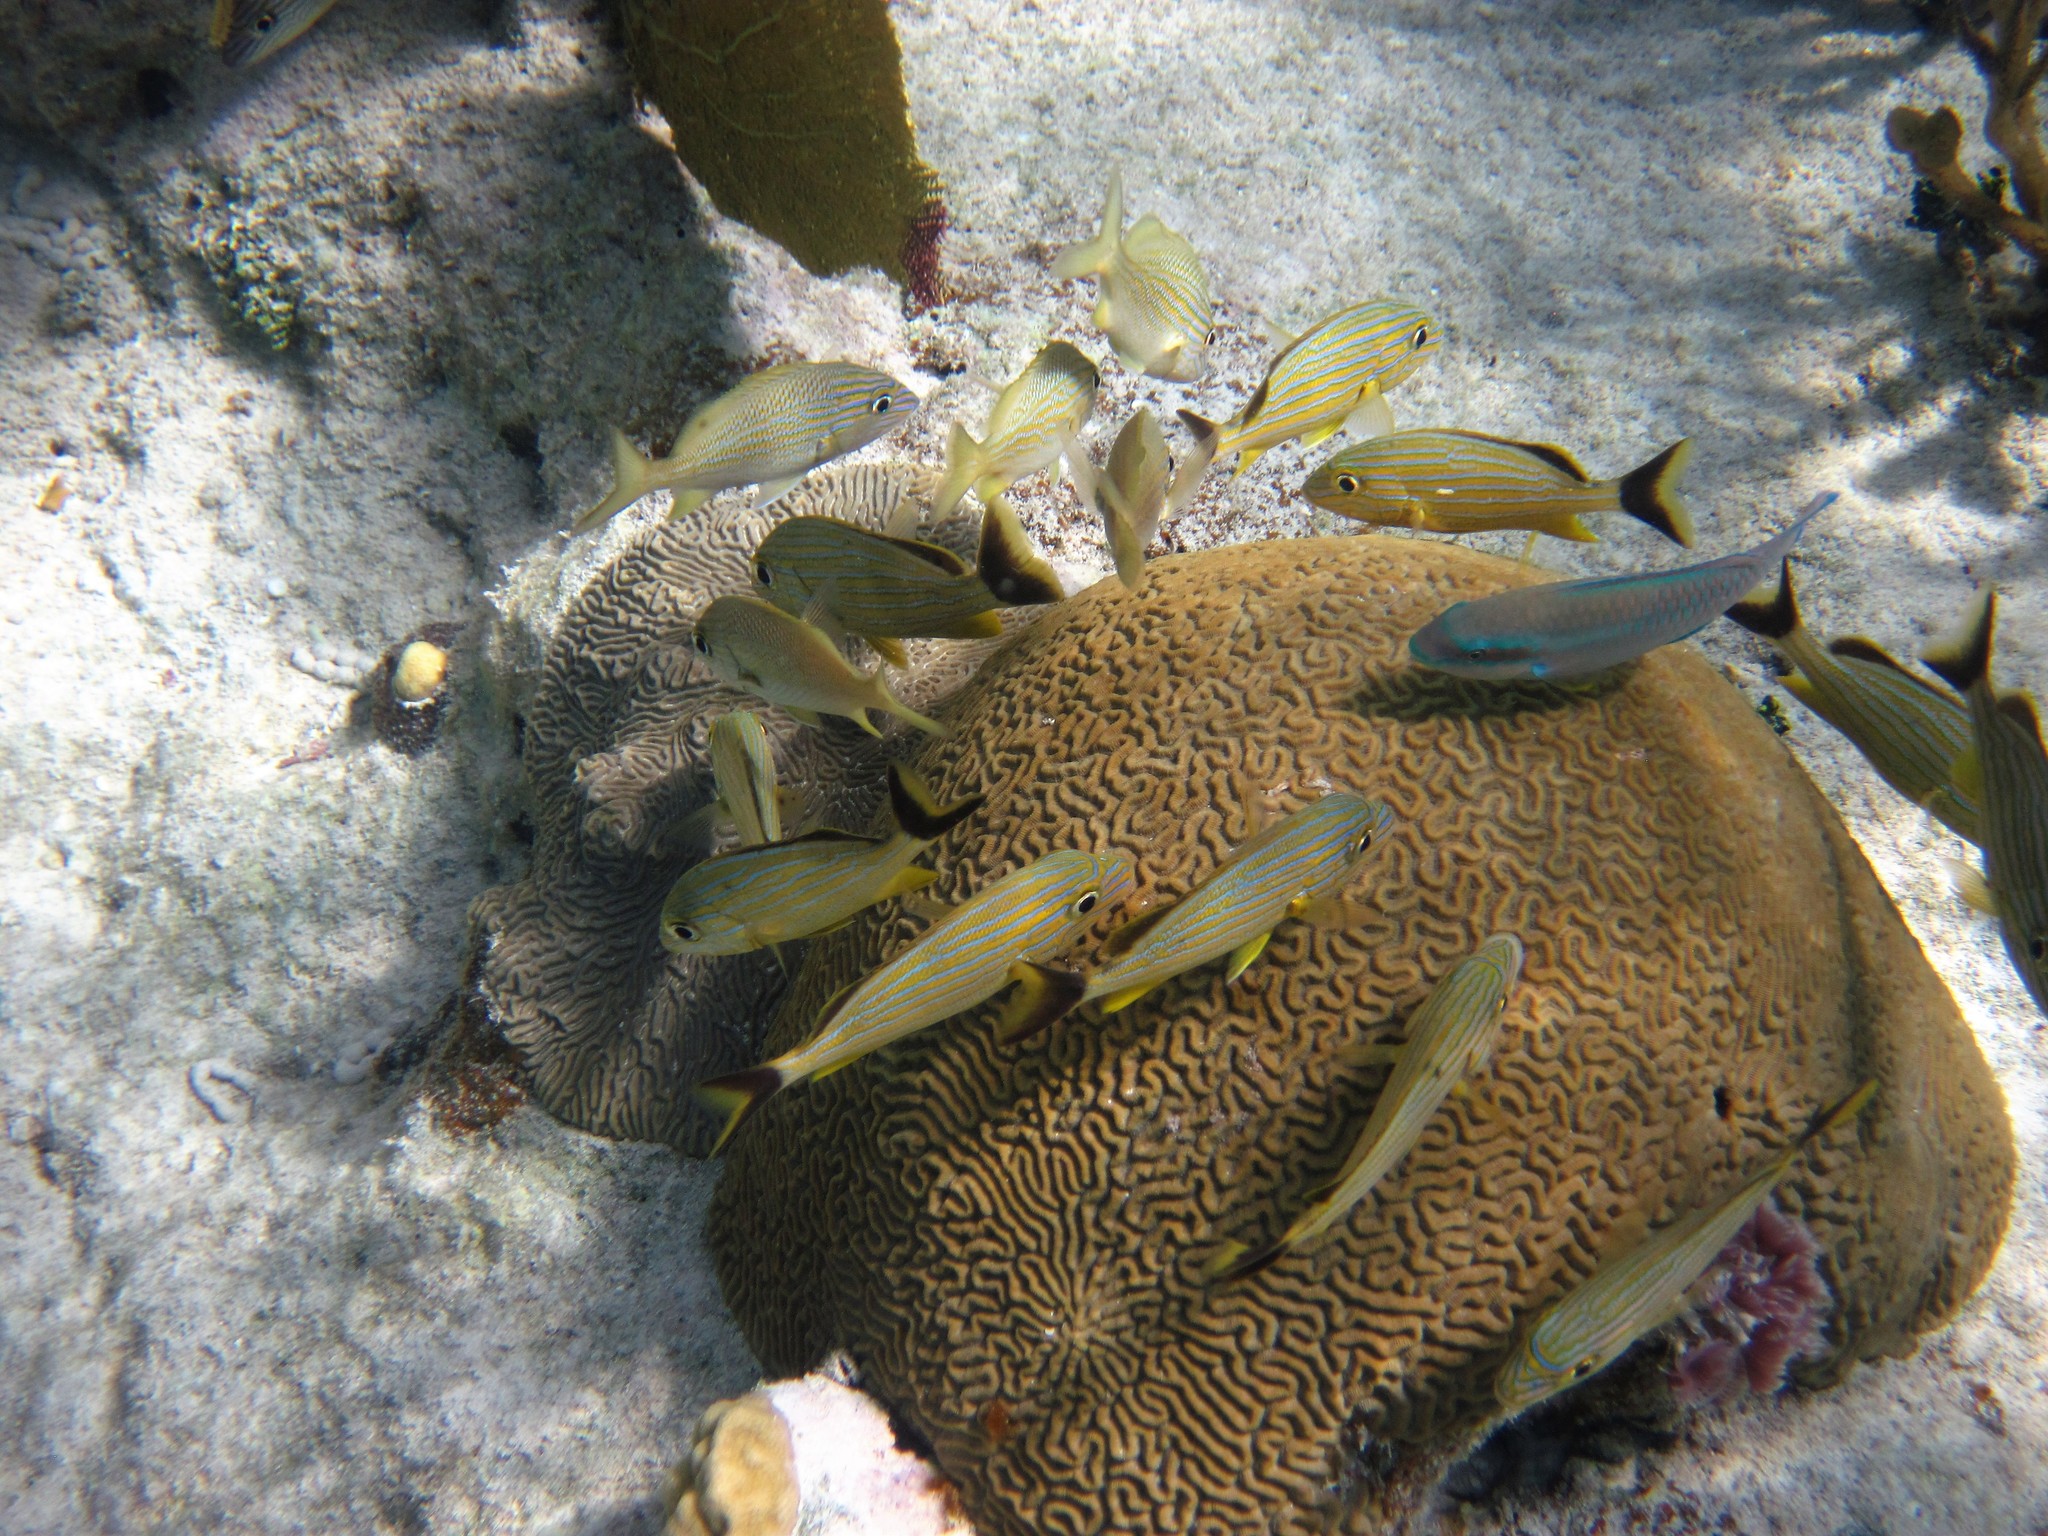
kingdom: Animalia
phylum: Chordata
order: Perciformes
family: Scaridae
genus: Scarus
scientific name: Scarus iseri
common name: Striped parrotfish
